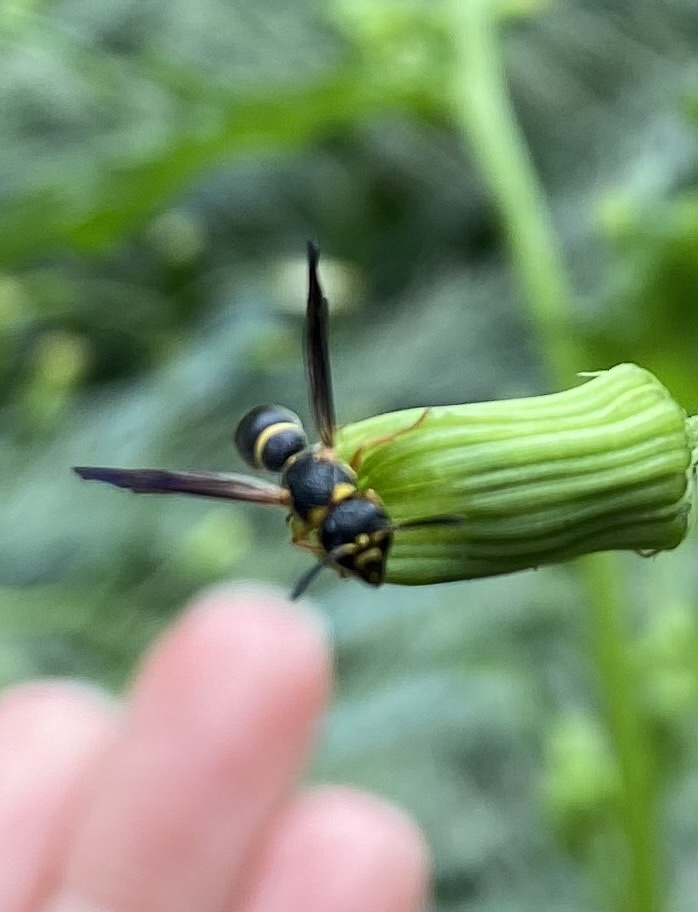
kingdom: Animalia
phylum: Arthropoda
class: Insecta
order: Hymenoptera
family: Eumenidae
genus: Parancistrocerus
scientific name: Parancistrocerus perennis
